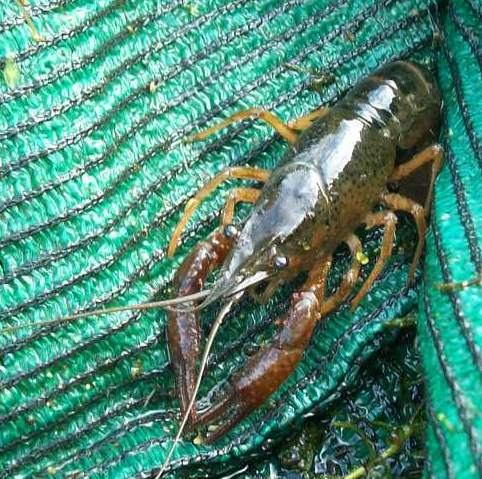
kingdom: Animalia
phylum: Arthropoda
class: Malacostraca
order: Decapoda
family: Cambaridae
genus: Procambarus
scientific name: Procambarus clarkii
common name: Red swamp crayfish
